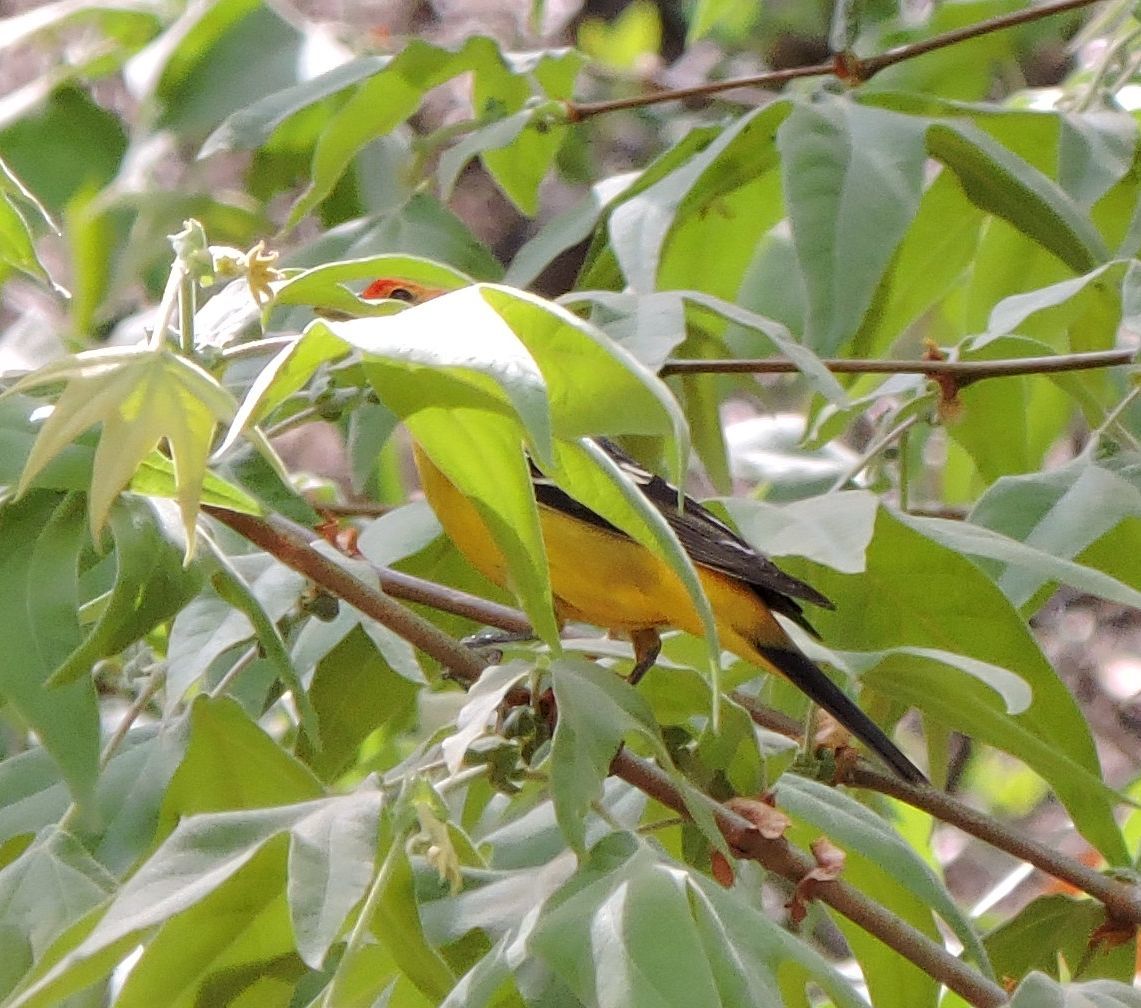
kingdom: Animalia
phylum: Chordata
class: Aves
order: Passeriformes
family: Cardinalidae
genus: Piranga
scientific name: Piranga ludoviciana
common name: Western tanager
